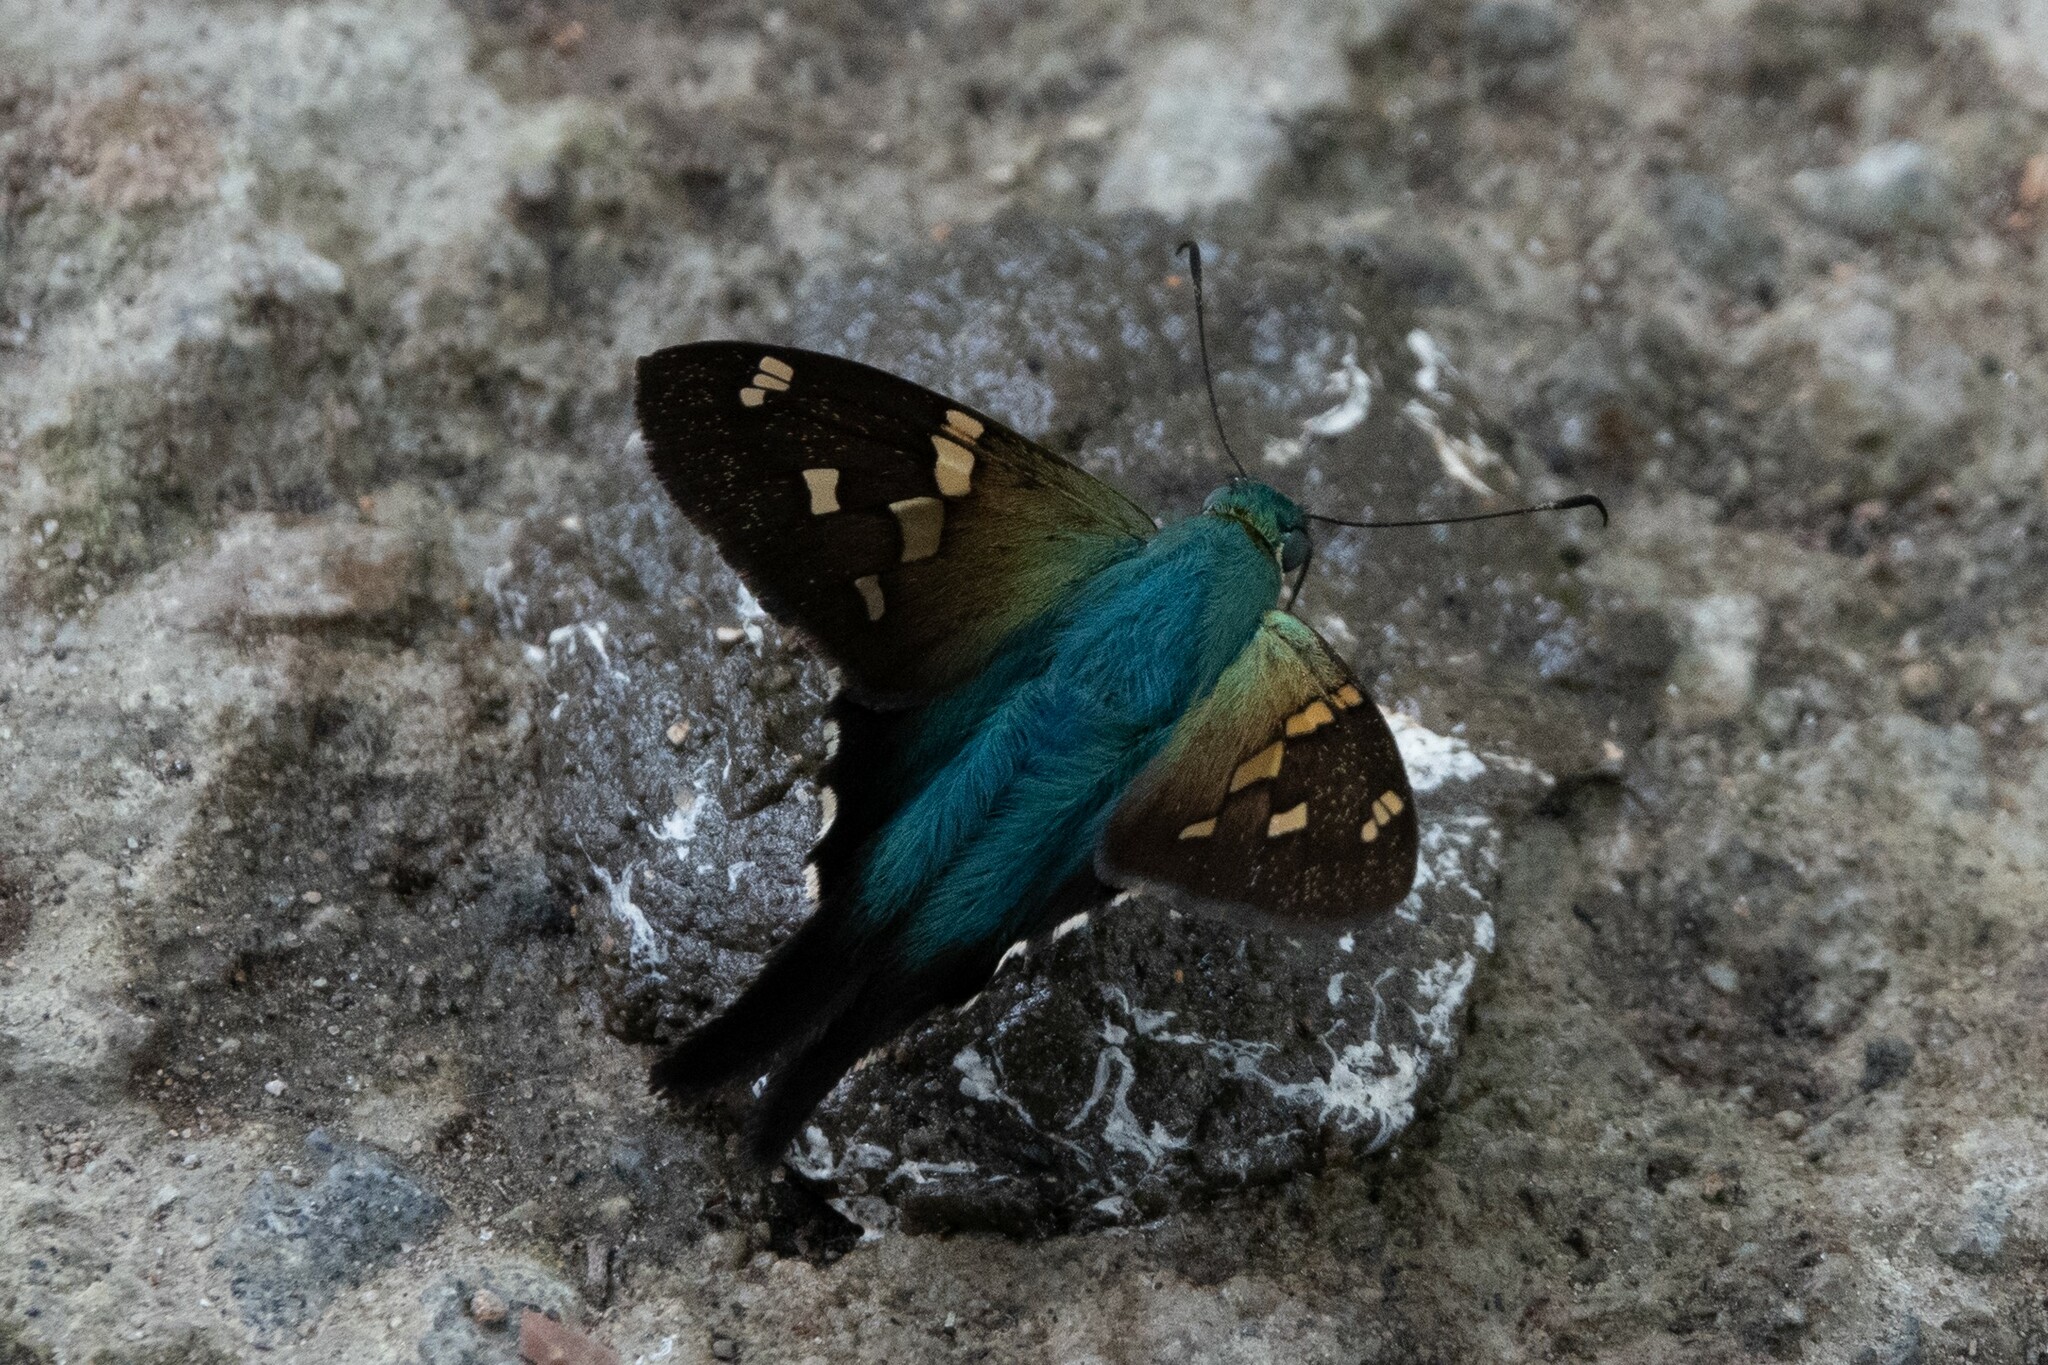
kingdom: Animalia
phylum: Arthropoda
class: Insecta
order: Lepidoptera
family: Hesperiidae
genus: Urbanus
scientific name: Urbanus proteus
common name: Long-tailed skipper
